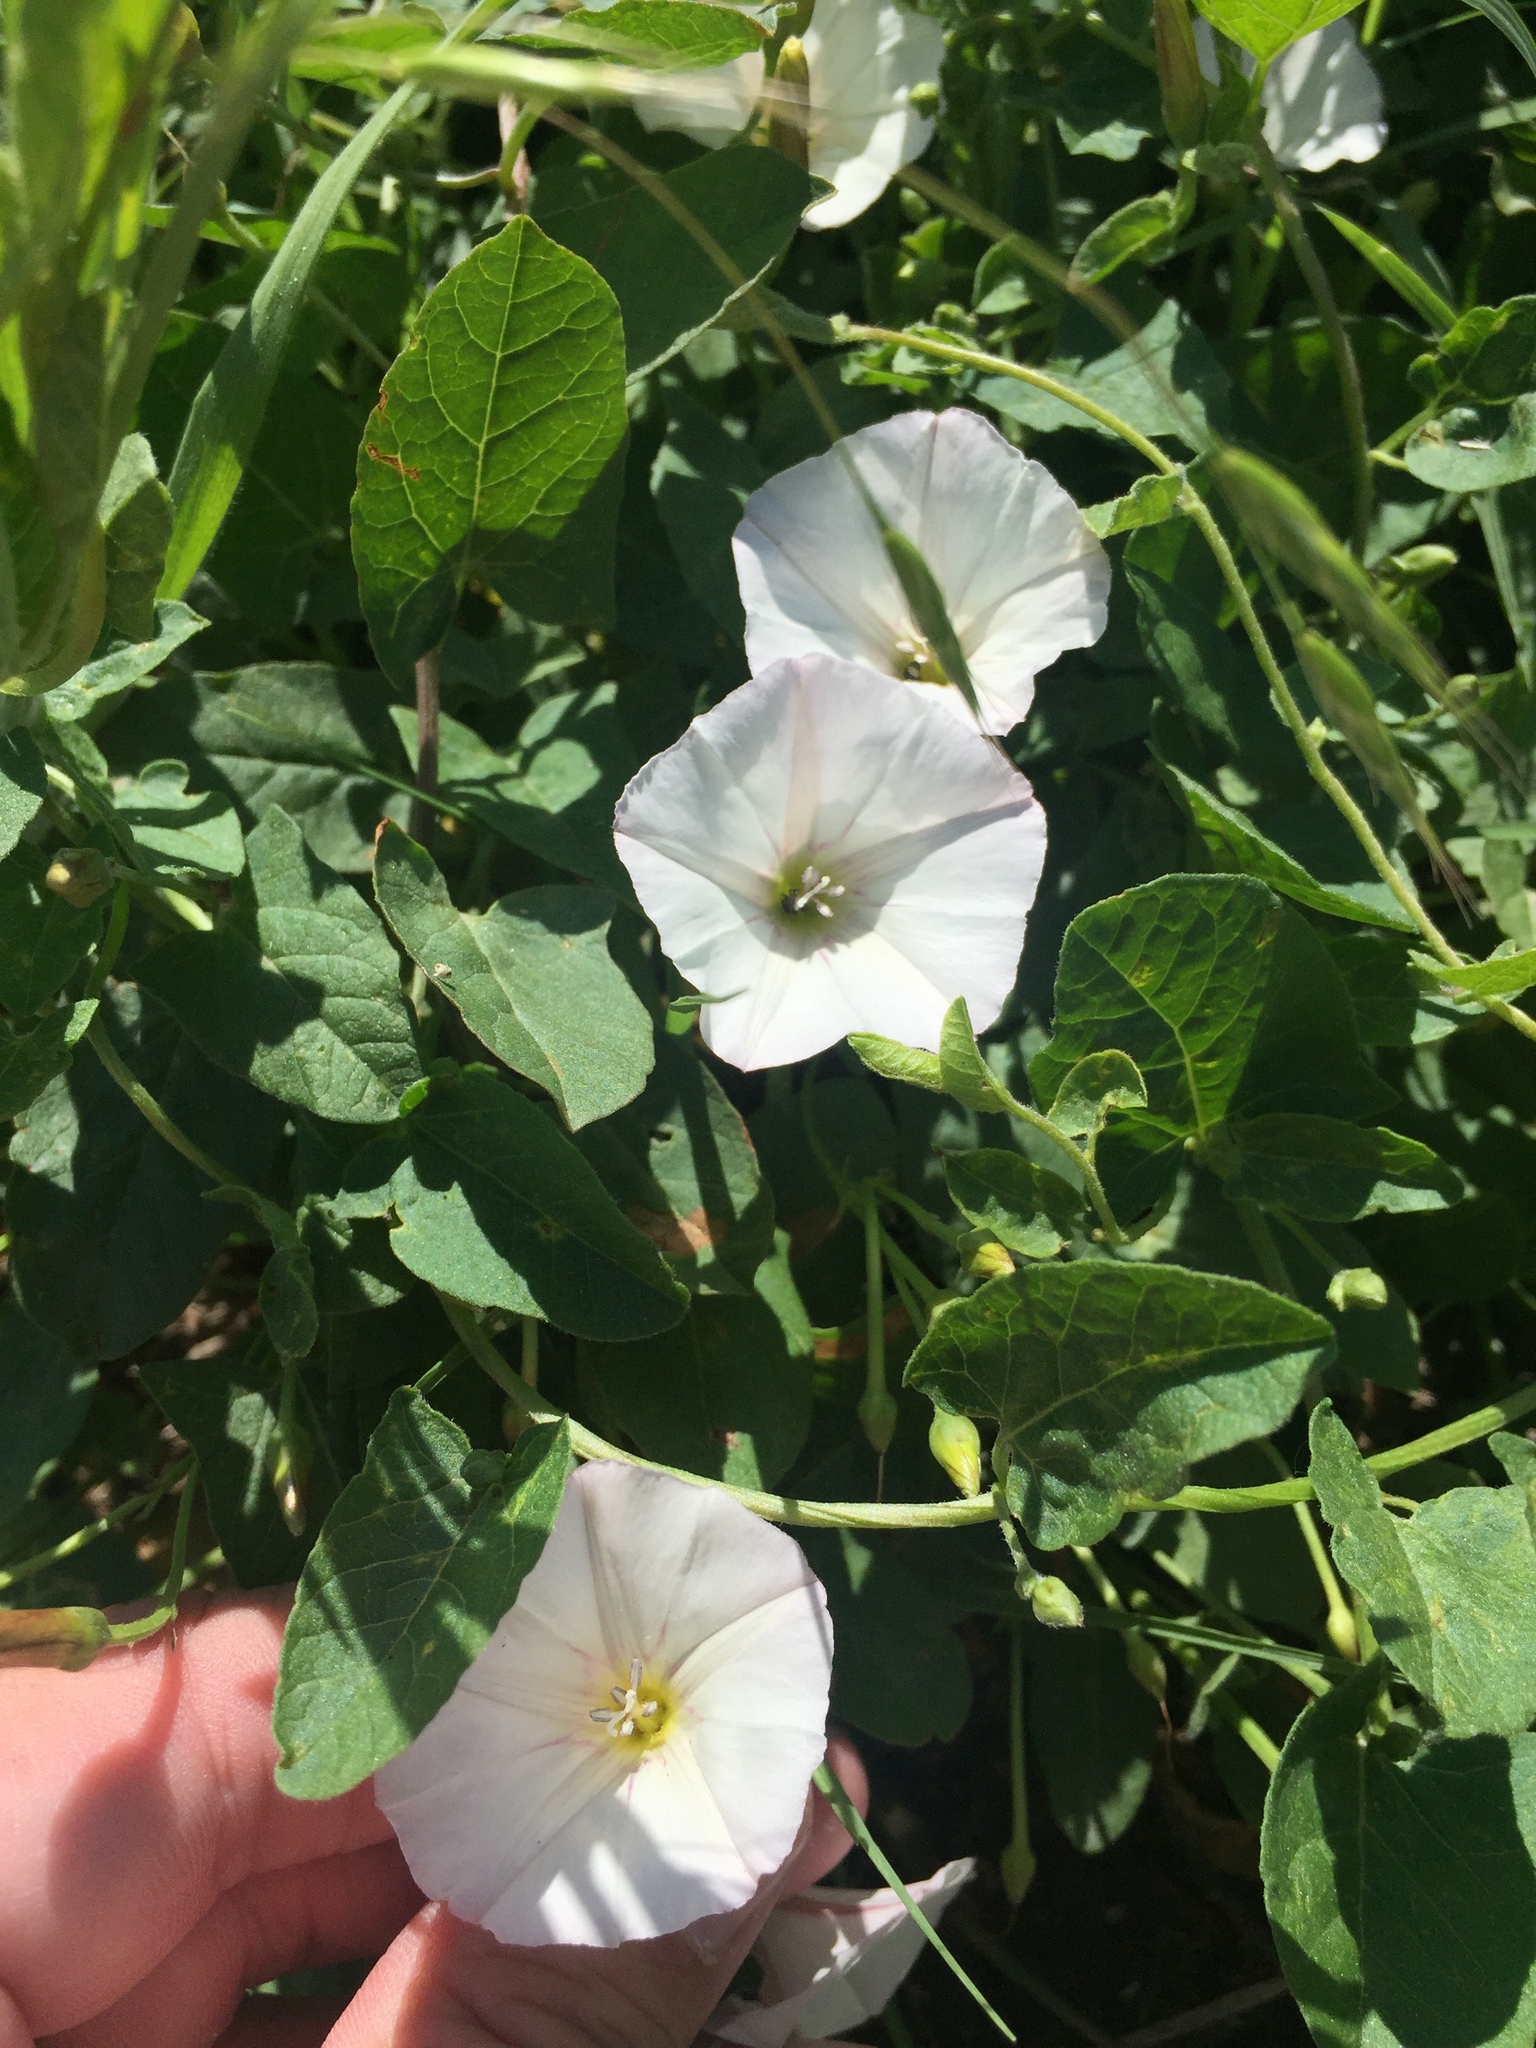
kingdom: Plantae
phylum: Tracheophyta
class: Magnoliopsida
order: Solanales
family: Convolvulaceae
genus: Convolvulus
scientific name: Convolvulus arvensis
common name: Field bindweed
